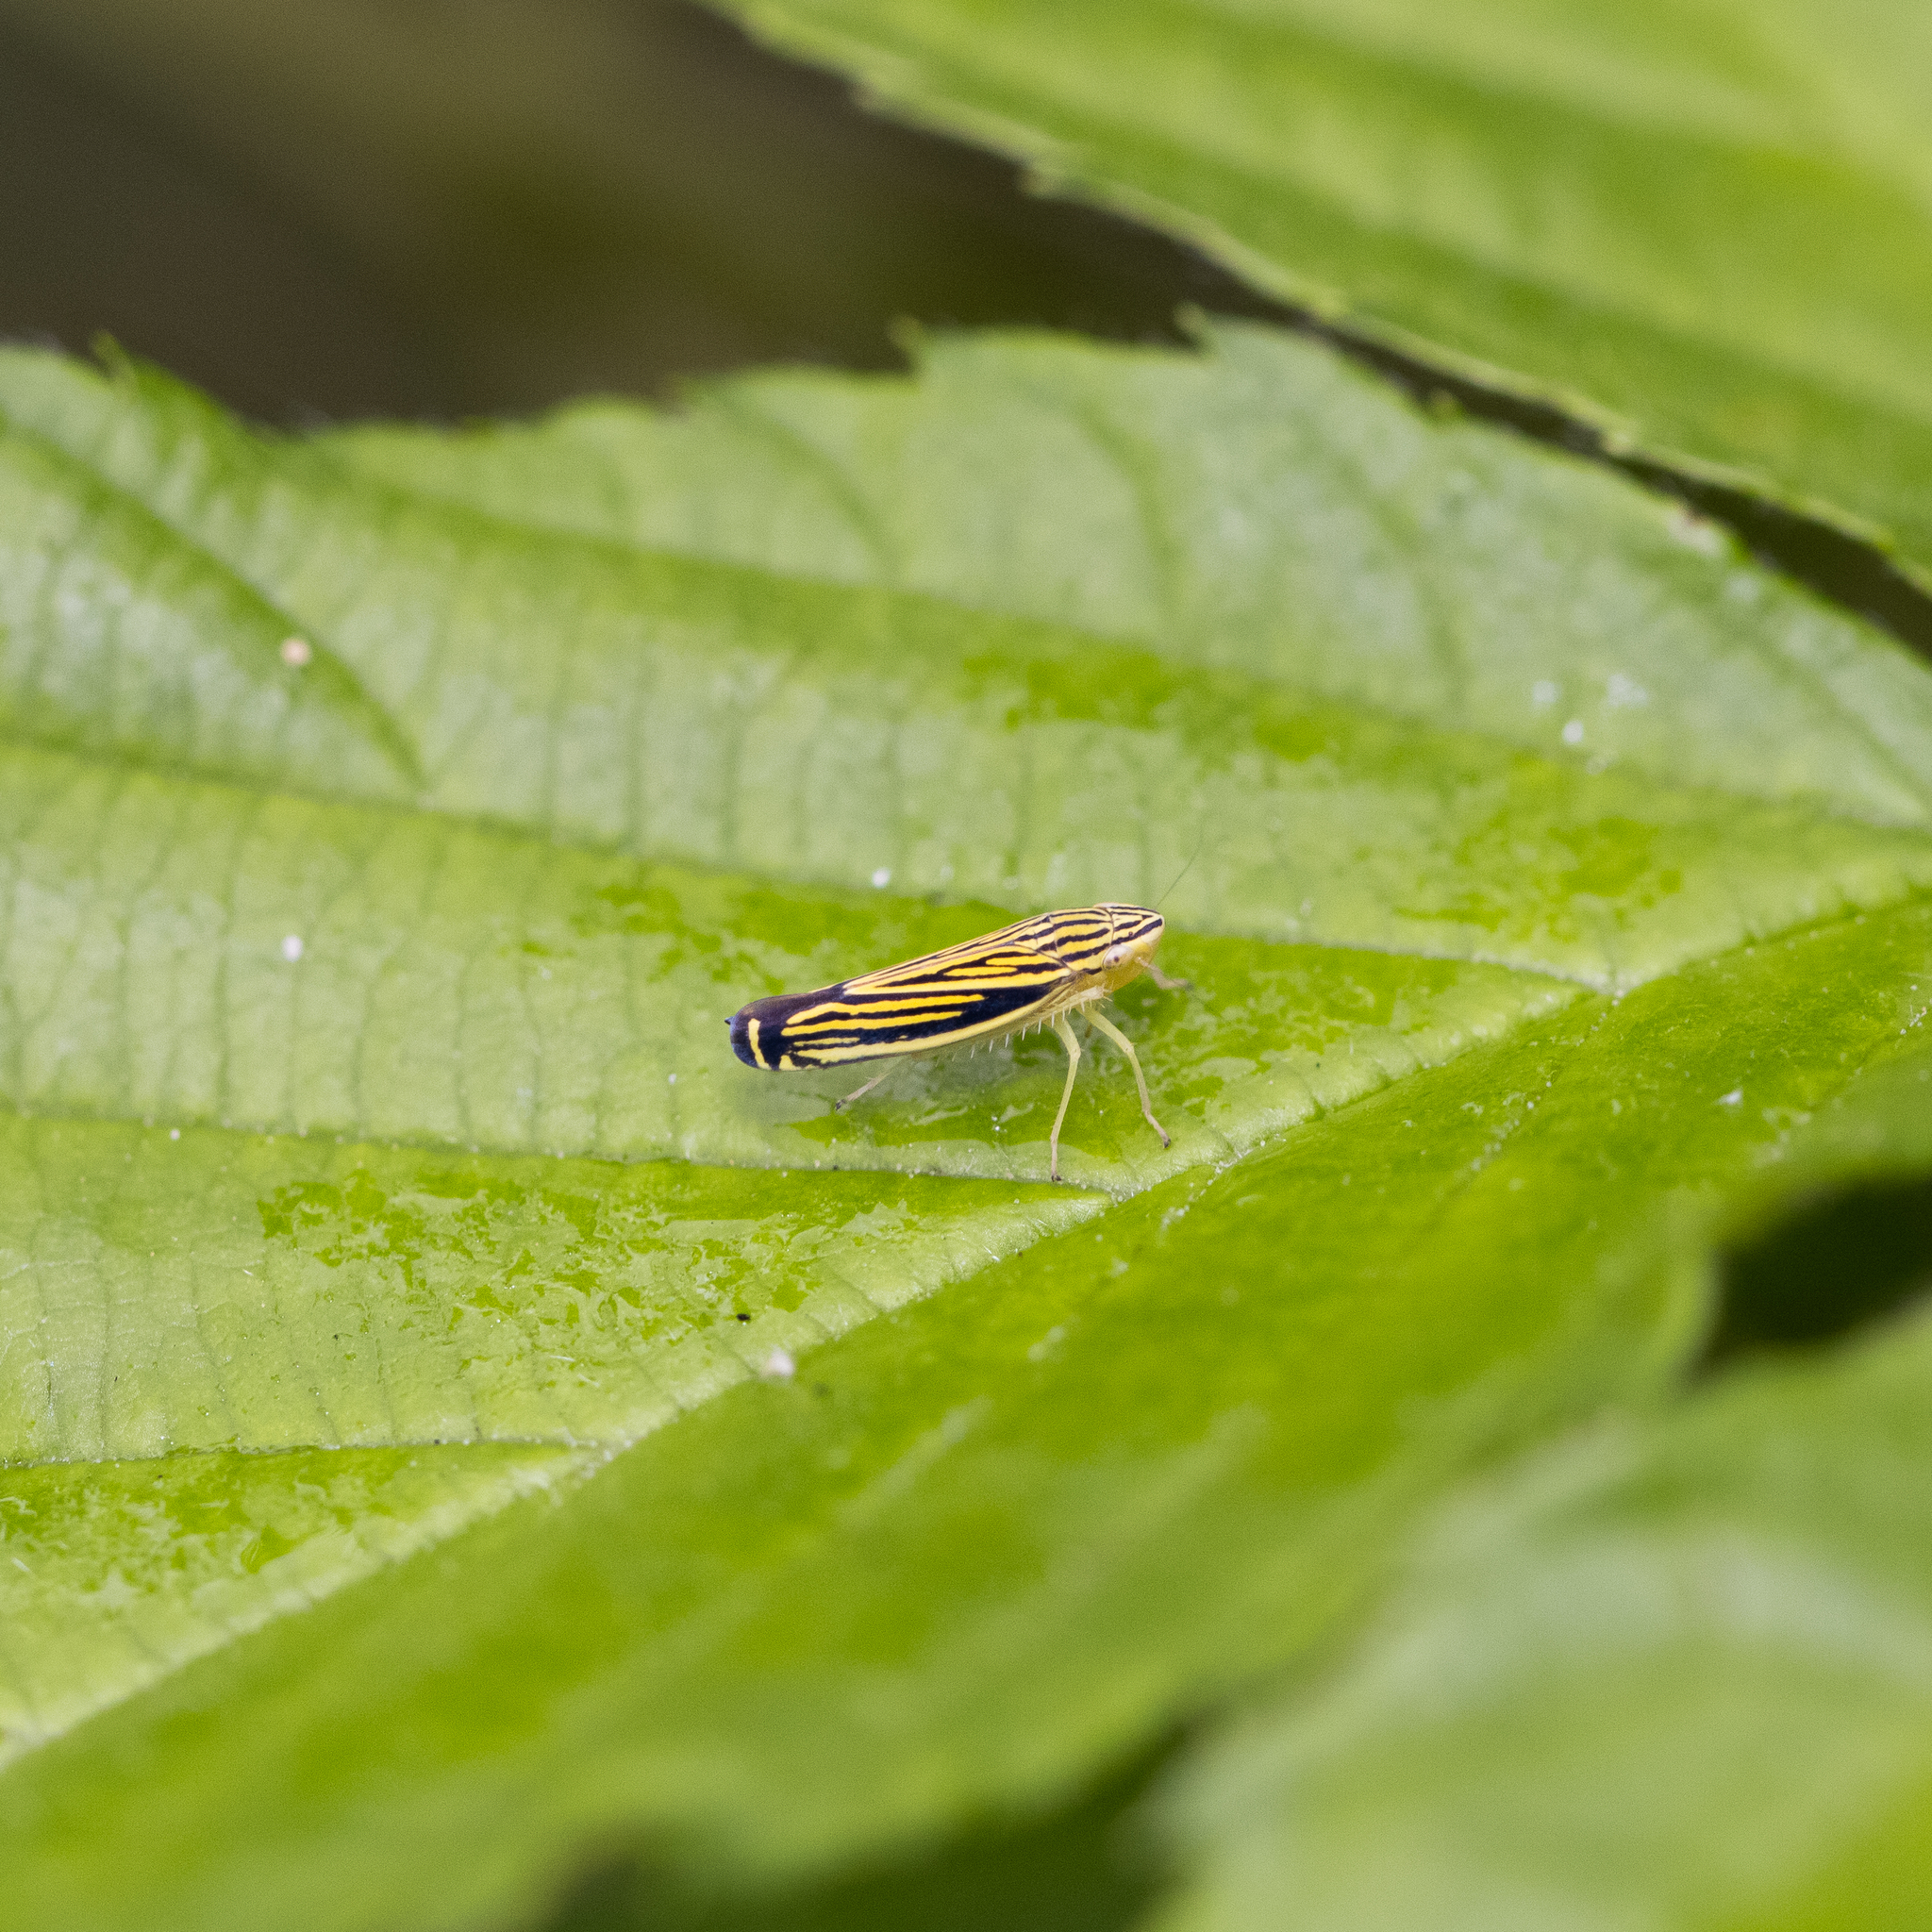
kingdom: Animalia
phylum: Arthropoda
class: Insecta
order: Hemiptera
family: Cicadellidae
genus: Sibovia
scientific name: Sibovia occatoria
